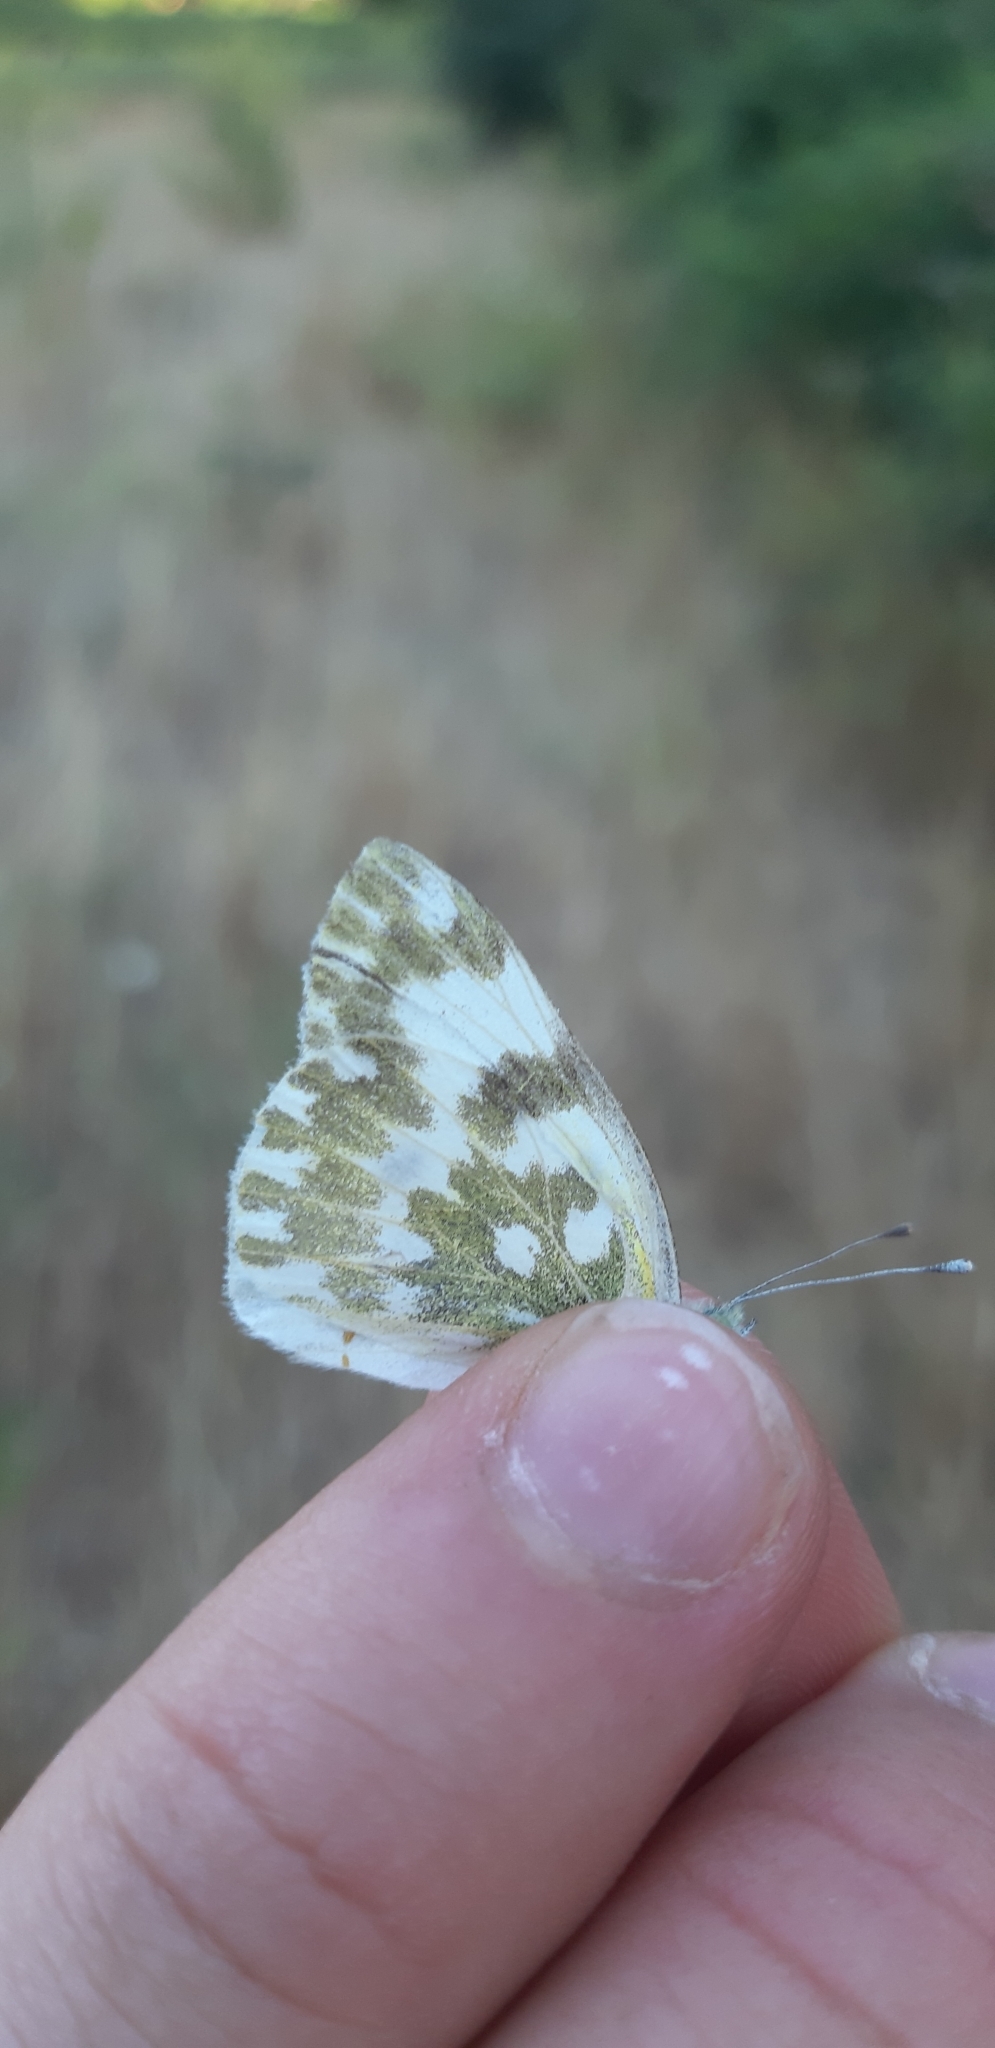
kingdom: Animalia
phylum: Arthropoda
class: Insecta
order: Lepidoptera
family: Pieridae
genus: Pontia
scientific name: Pontia edusa
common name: Eastern bath white
